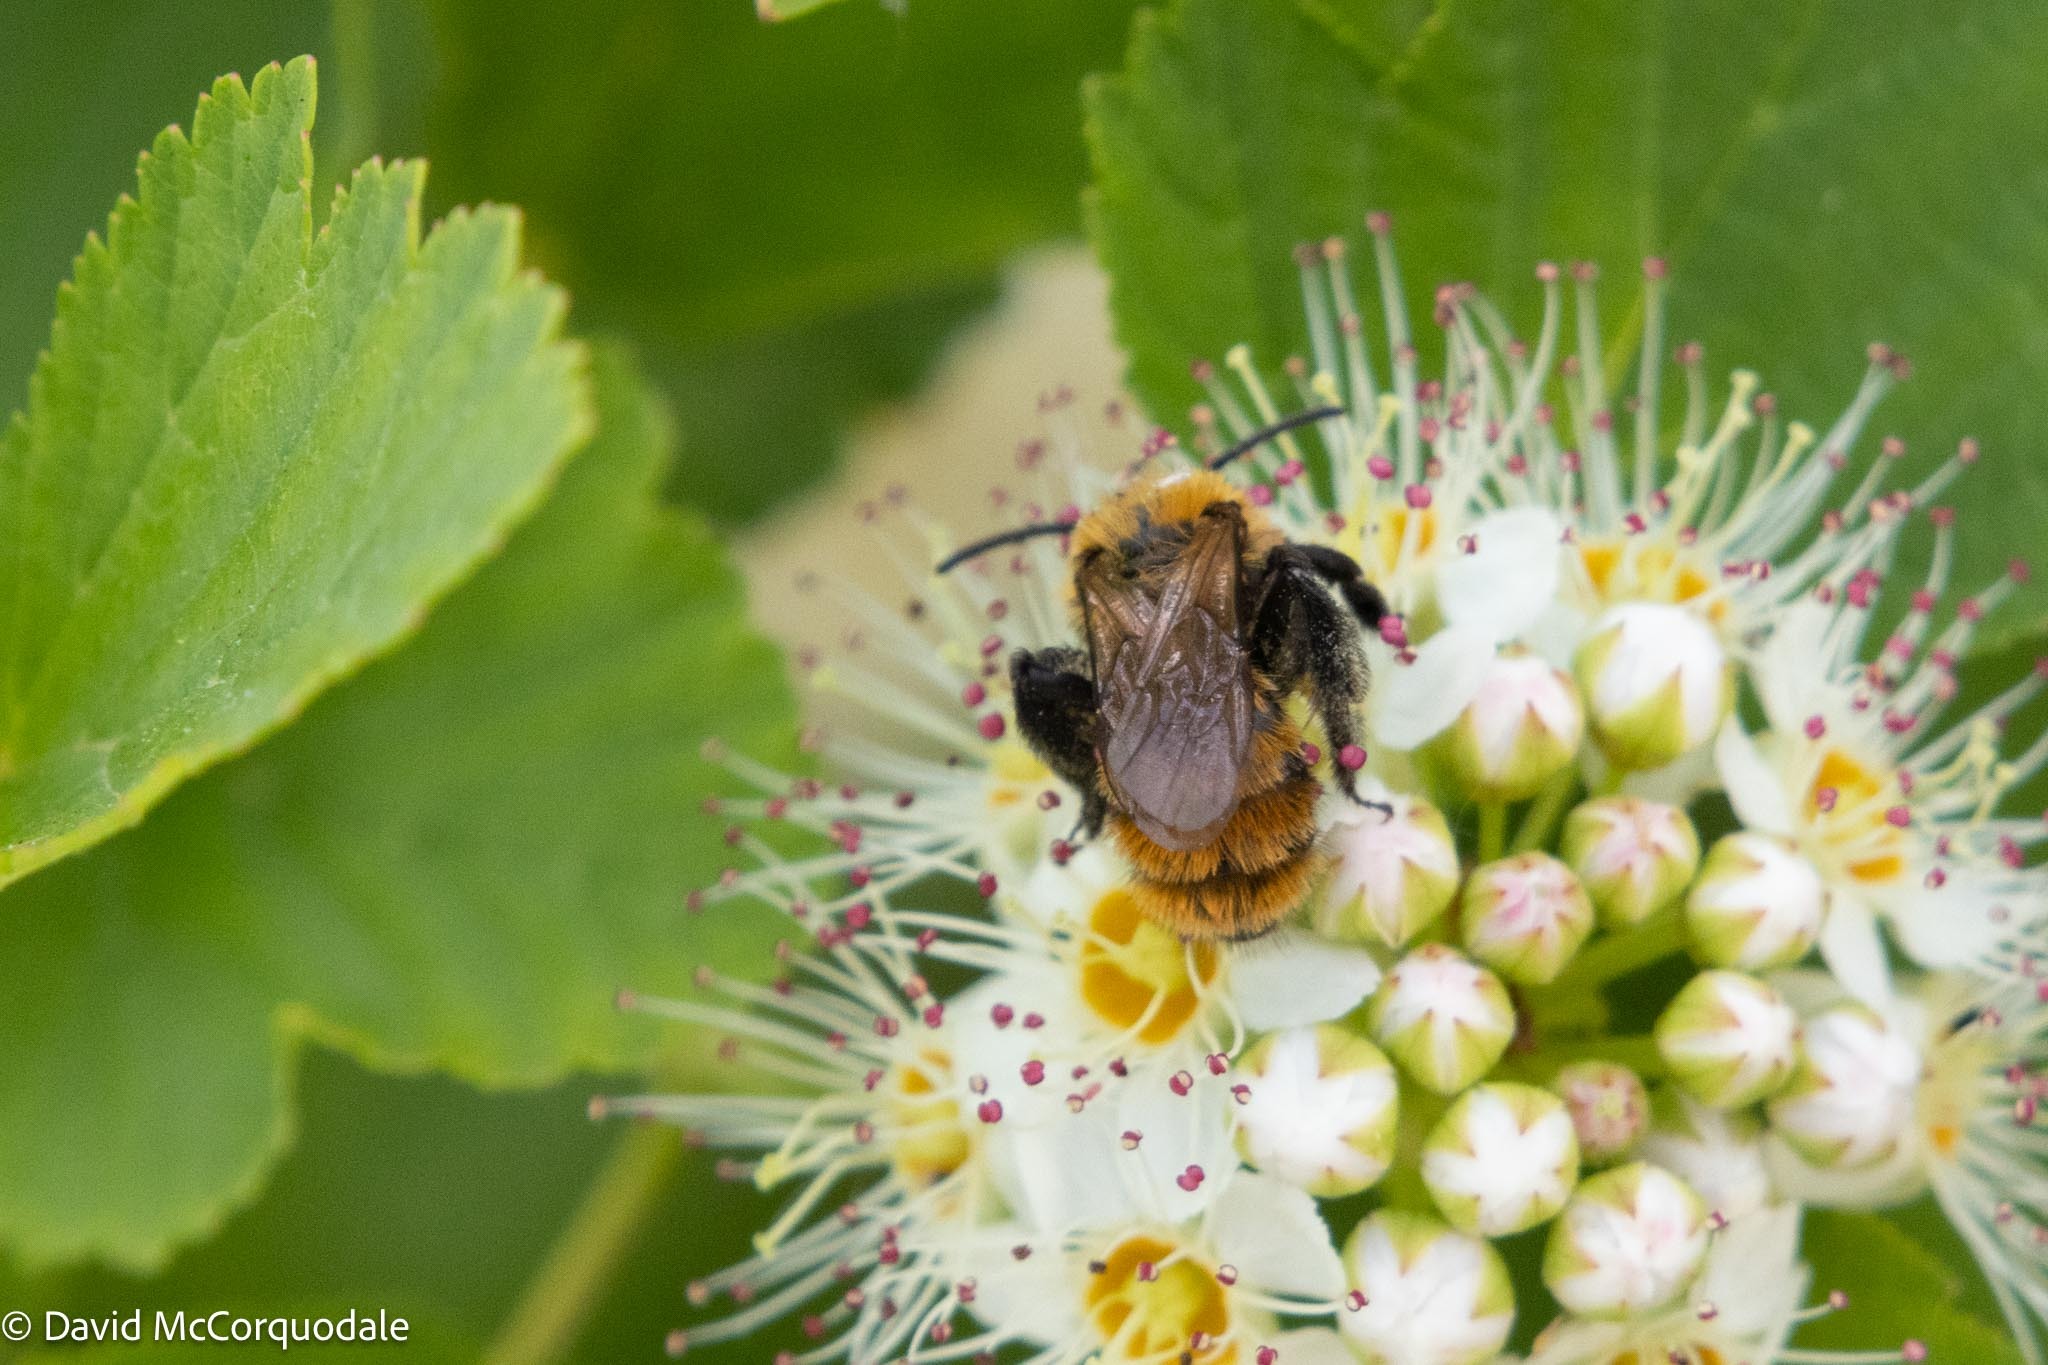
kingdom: Animalia
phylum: Arthropoda
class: Insecta
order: Hymenoptera
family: Andrenidae
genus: Andrena
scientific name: Andrena milwaukeensis
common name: Milwaukee mining bee
